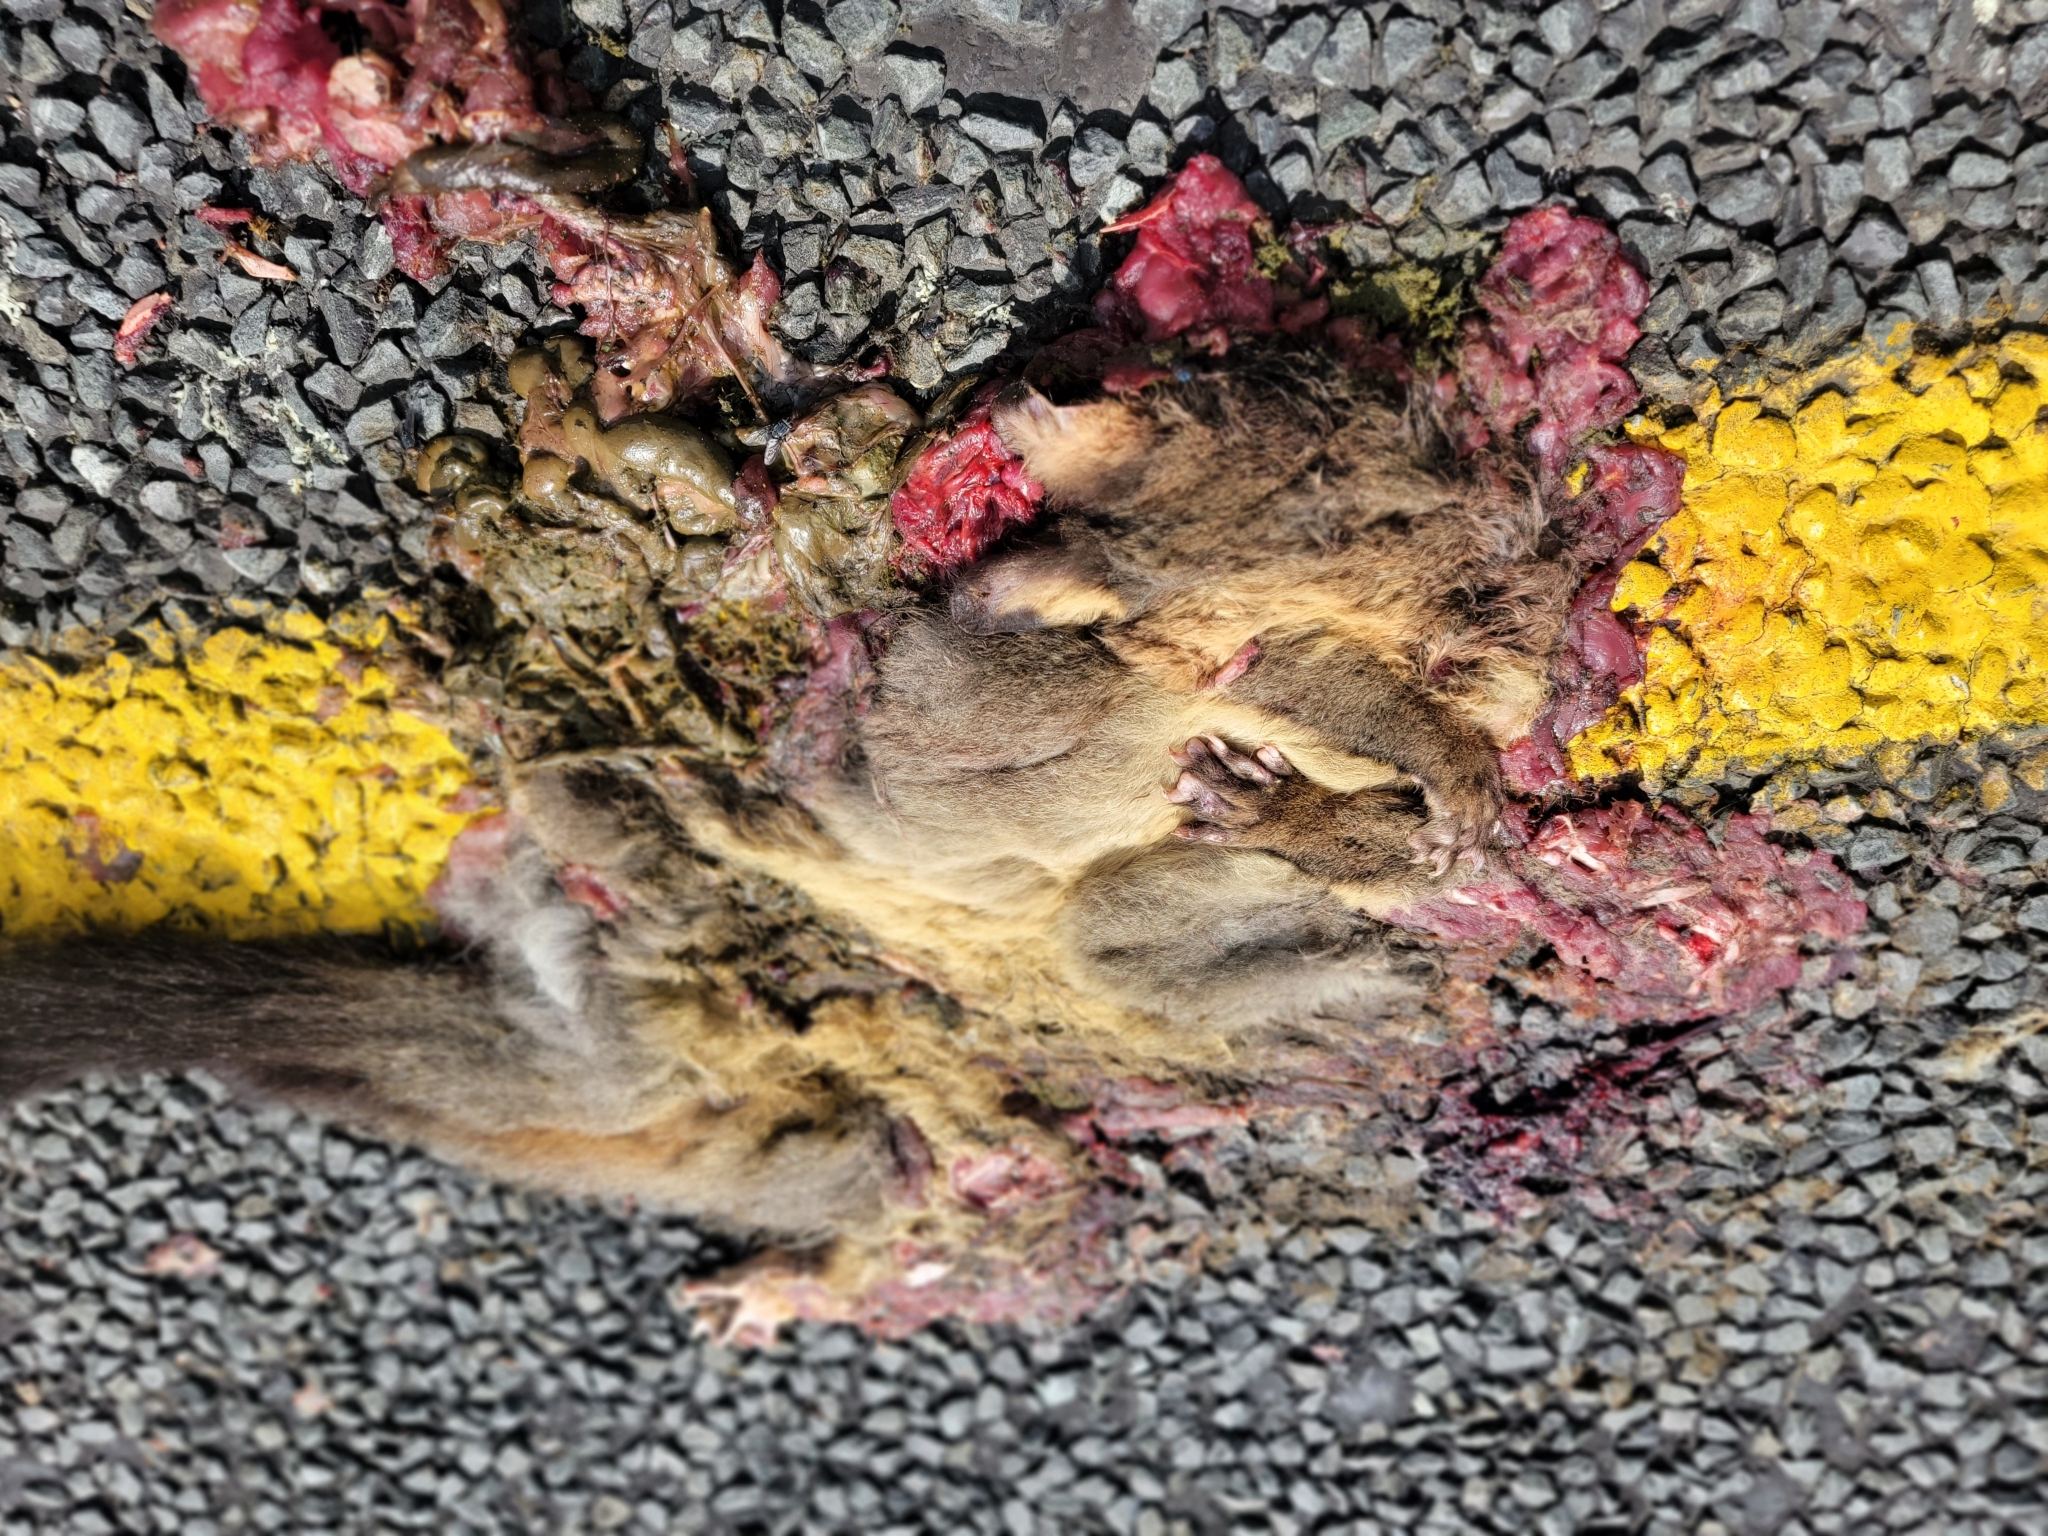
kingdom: Animalia
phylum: Chordata
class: Mammalia
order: Diprotodontia
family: Phalangeridae
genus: Trichosurus
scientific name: Trichosurus vulpecula
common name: Common brushtail
